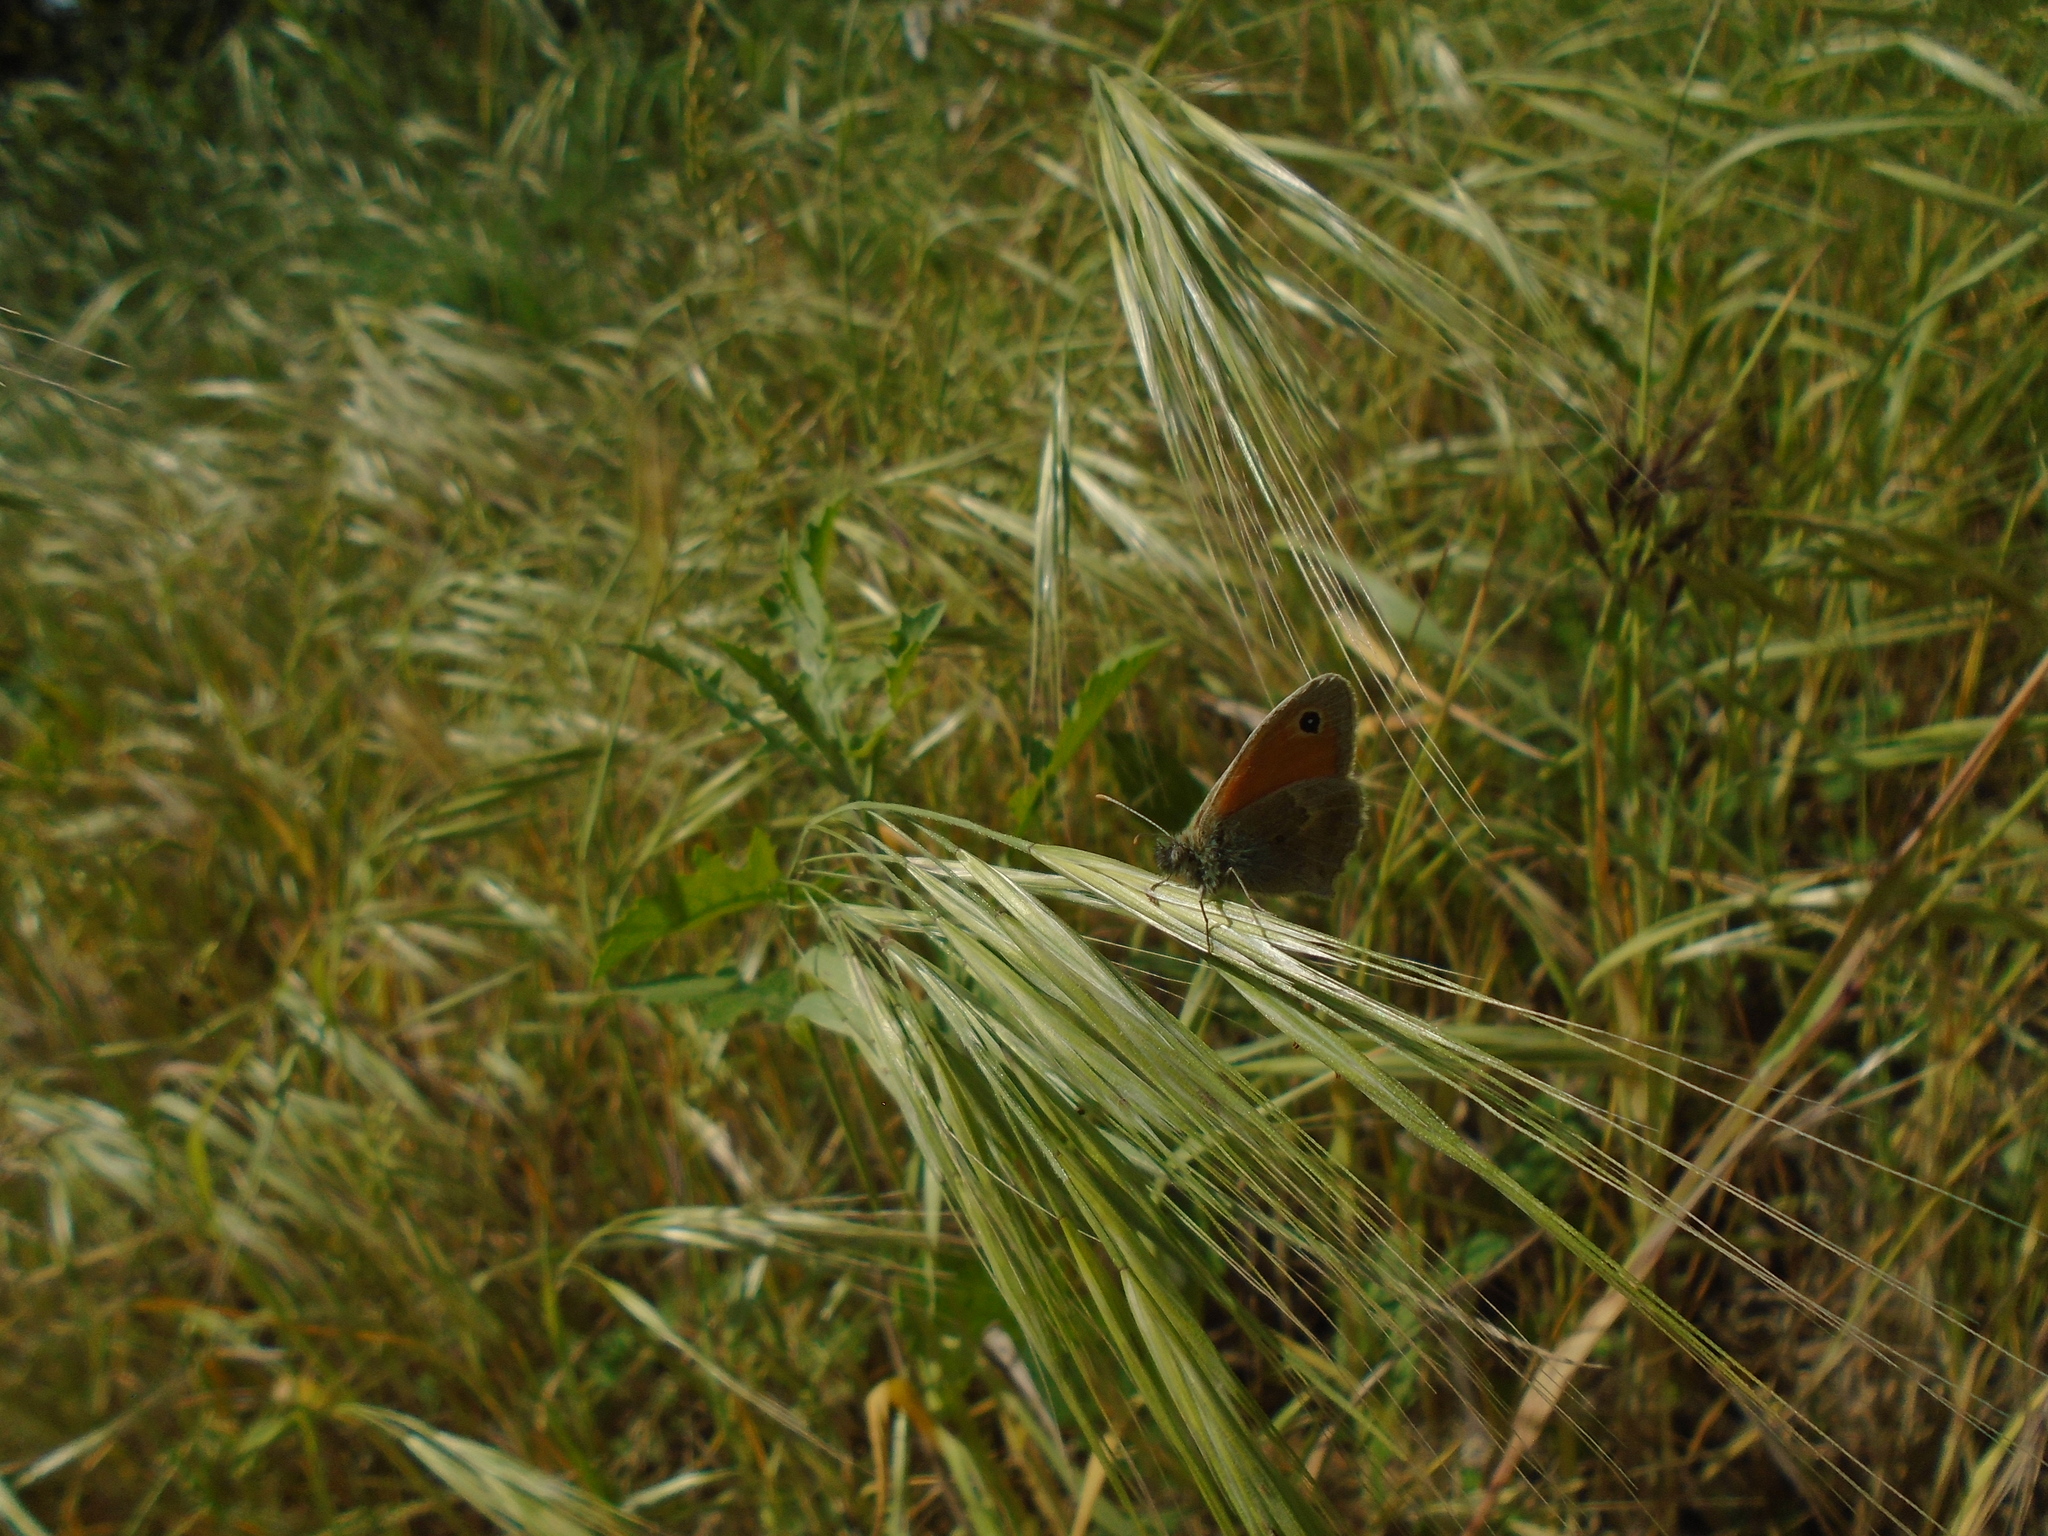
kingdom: Animalia
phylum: Arthropoda
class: Insecta
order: Lepidoptera
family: Nymphalidae
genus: Coenonympha
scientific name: Coenonympha pamphilus
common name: Small heath
